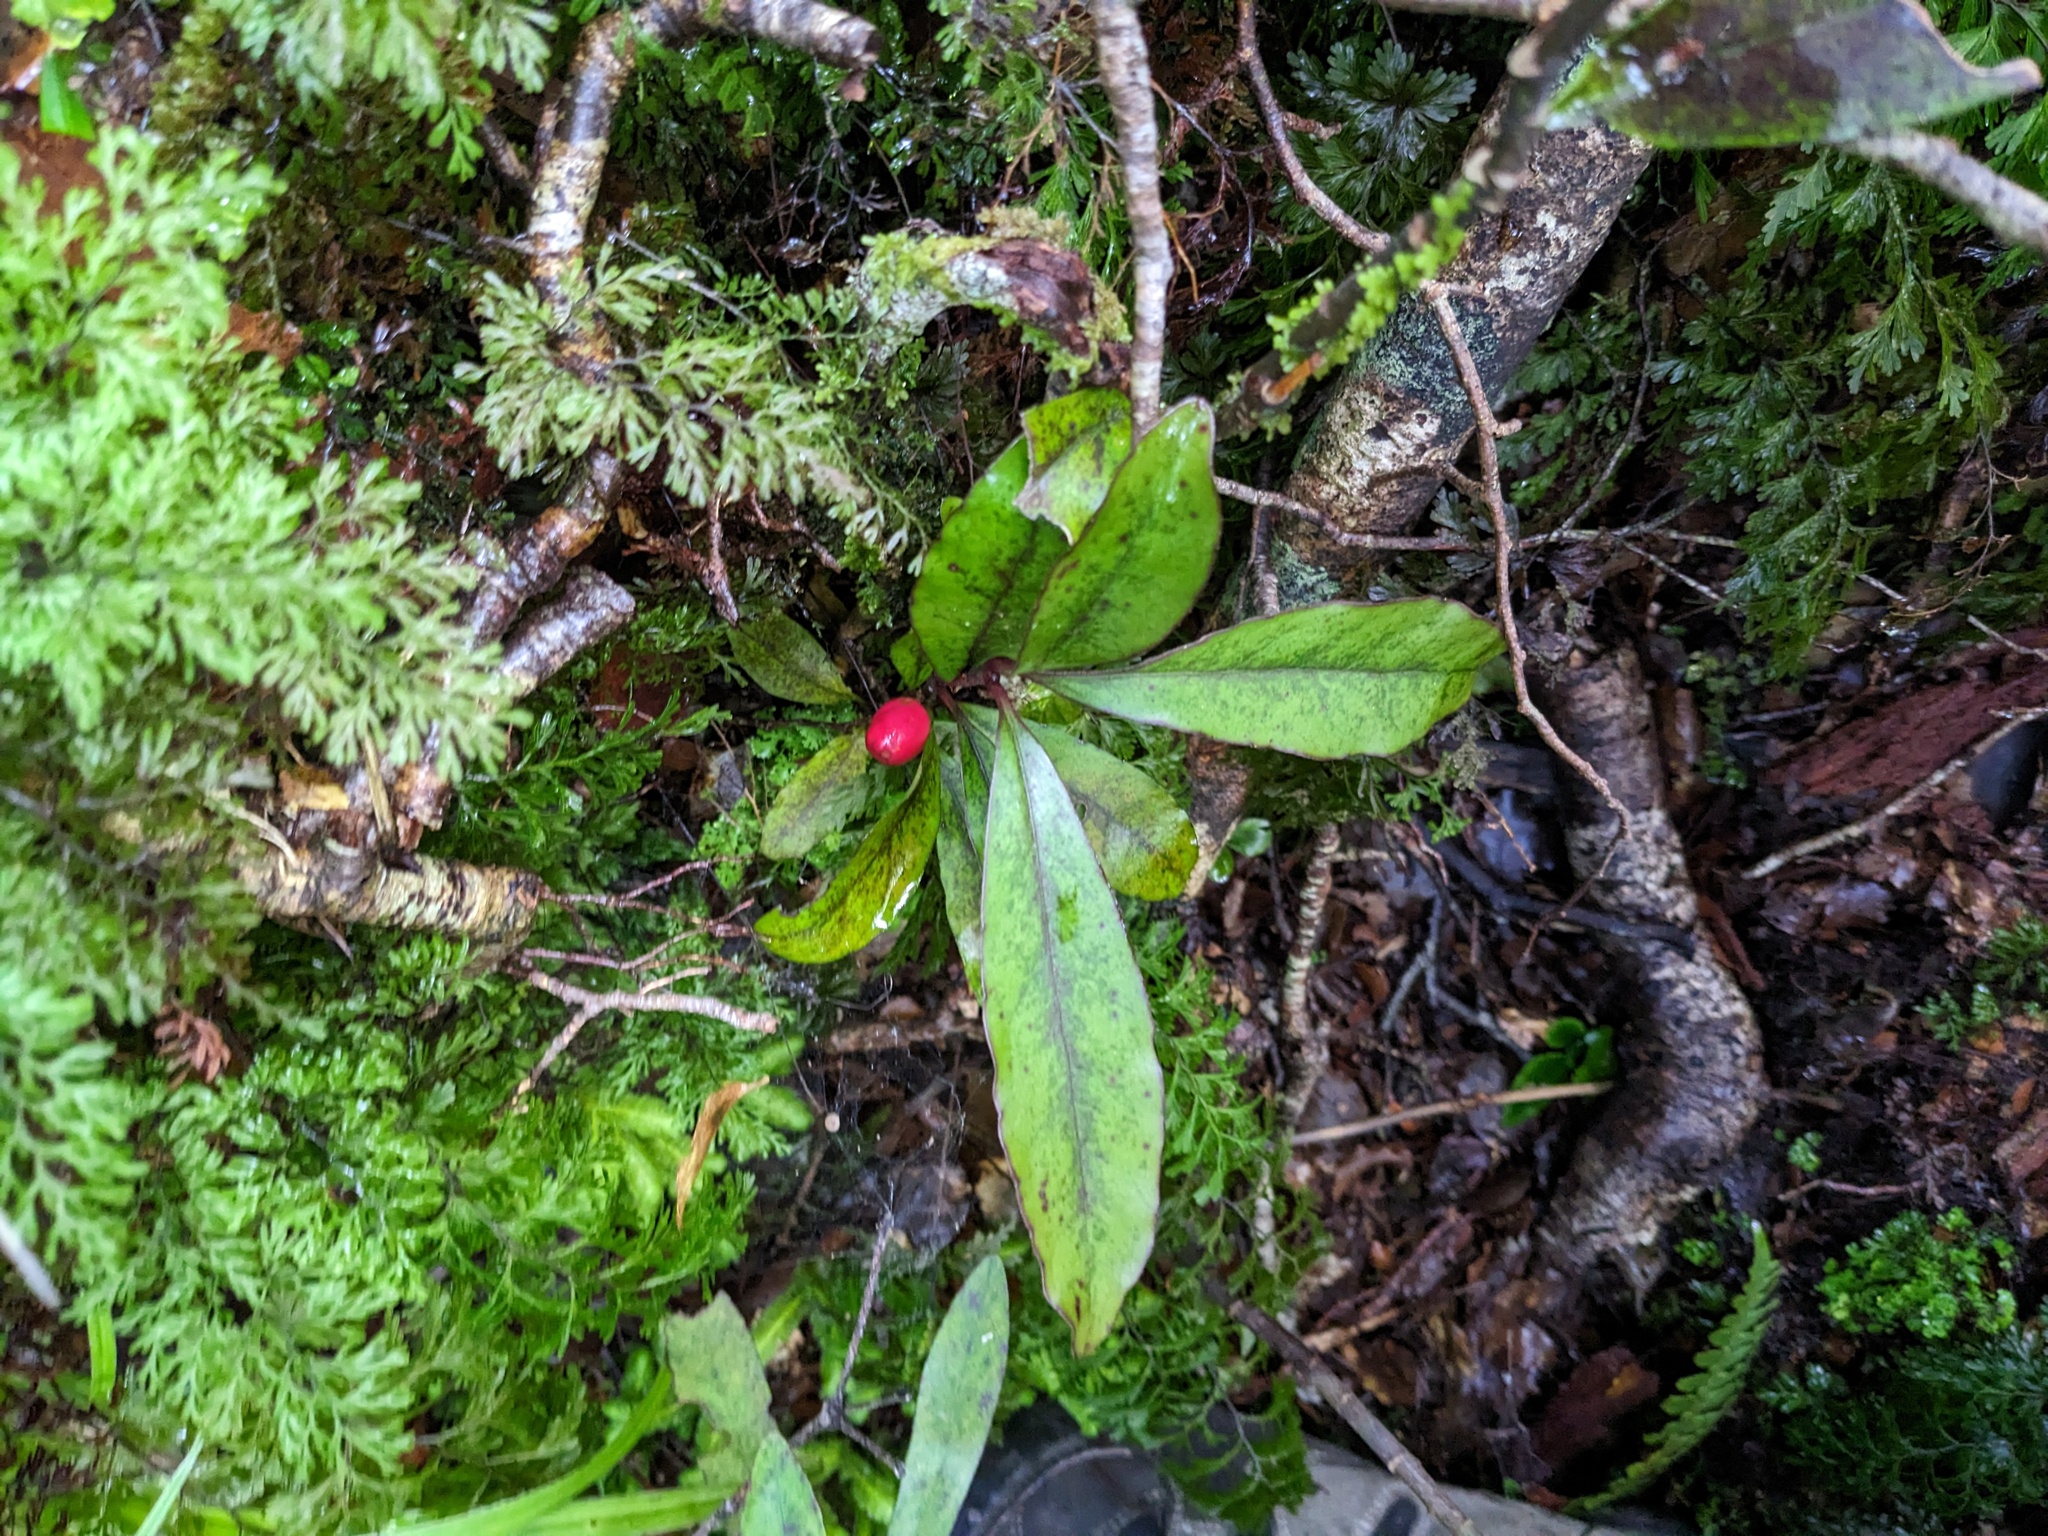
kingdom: Plantae
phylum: Tracheophyta
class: Magnoliopsida
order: Asterales
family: Alseuosmiaceae
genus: Alseuosmia
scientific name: Alseuosmia pusilla
